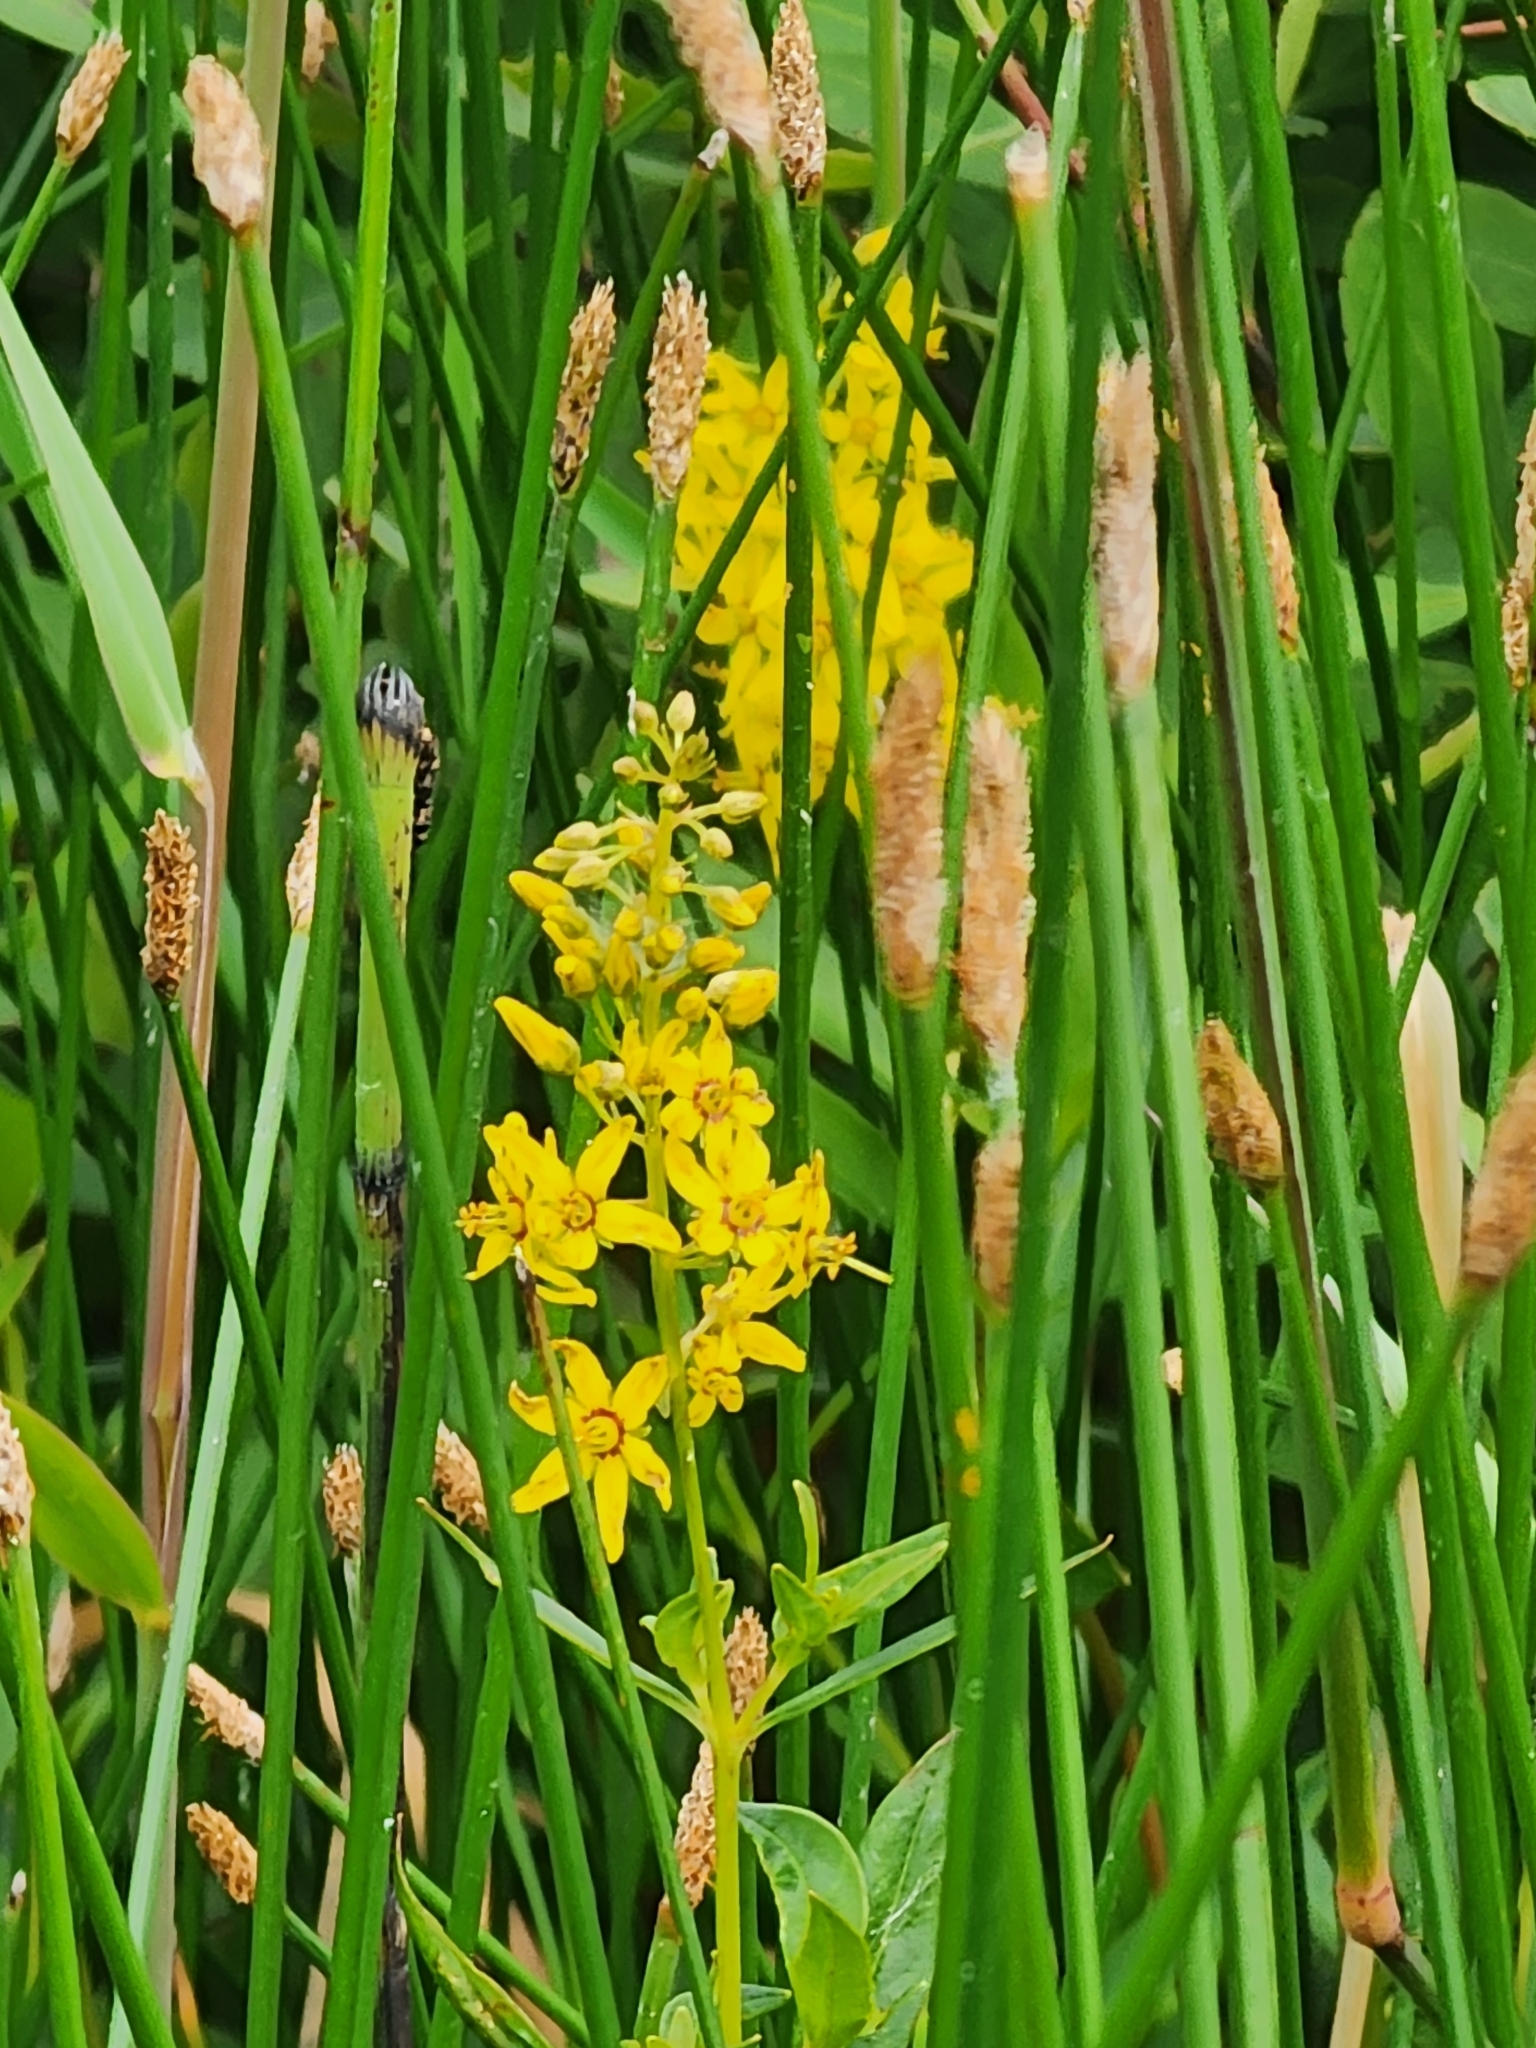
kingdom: Plantae
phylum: Tracheophyta
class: Magnoliopsida
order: Ericales
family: Primulaceae
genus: Lysimachia
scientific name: Lysimachia terrestris
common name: Lake loosestrife
